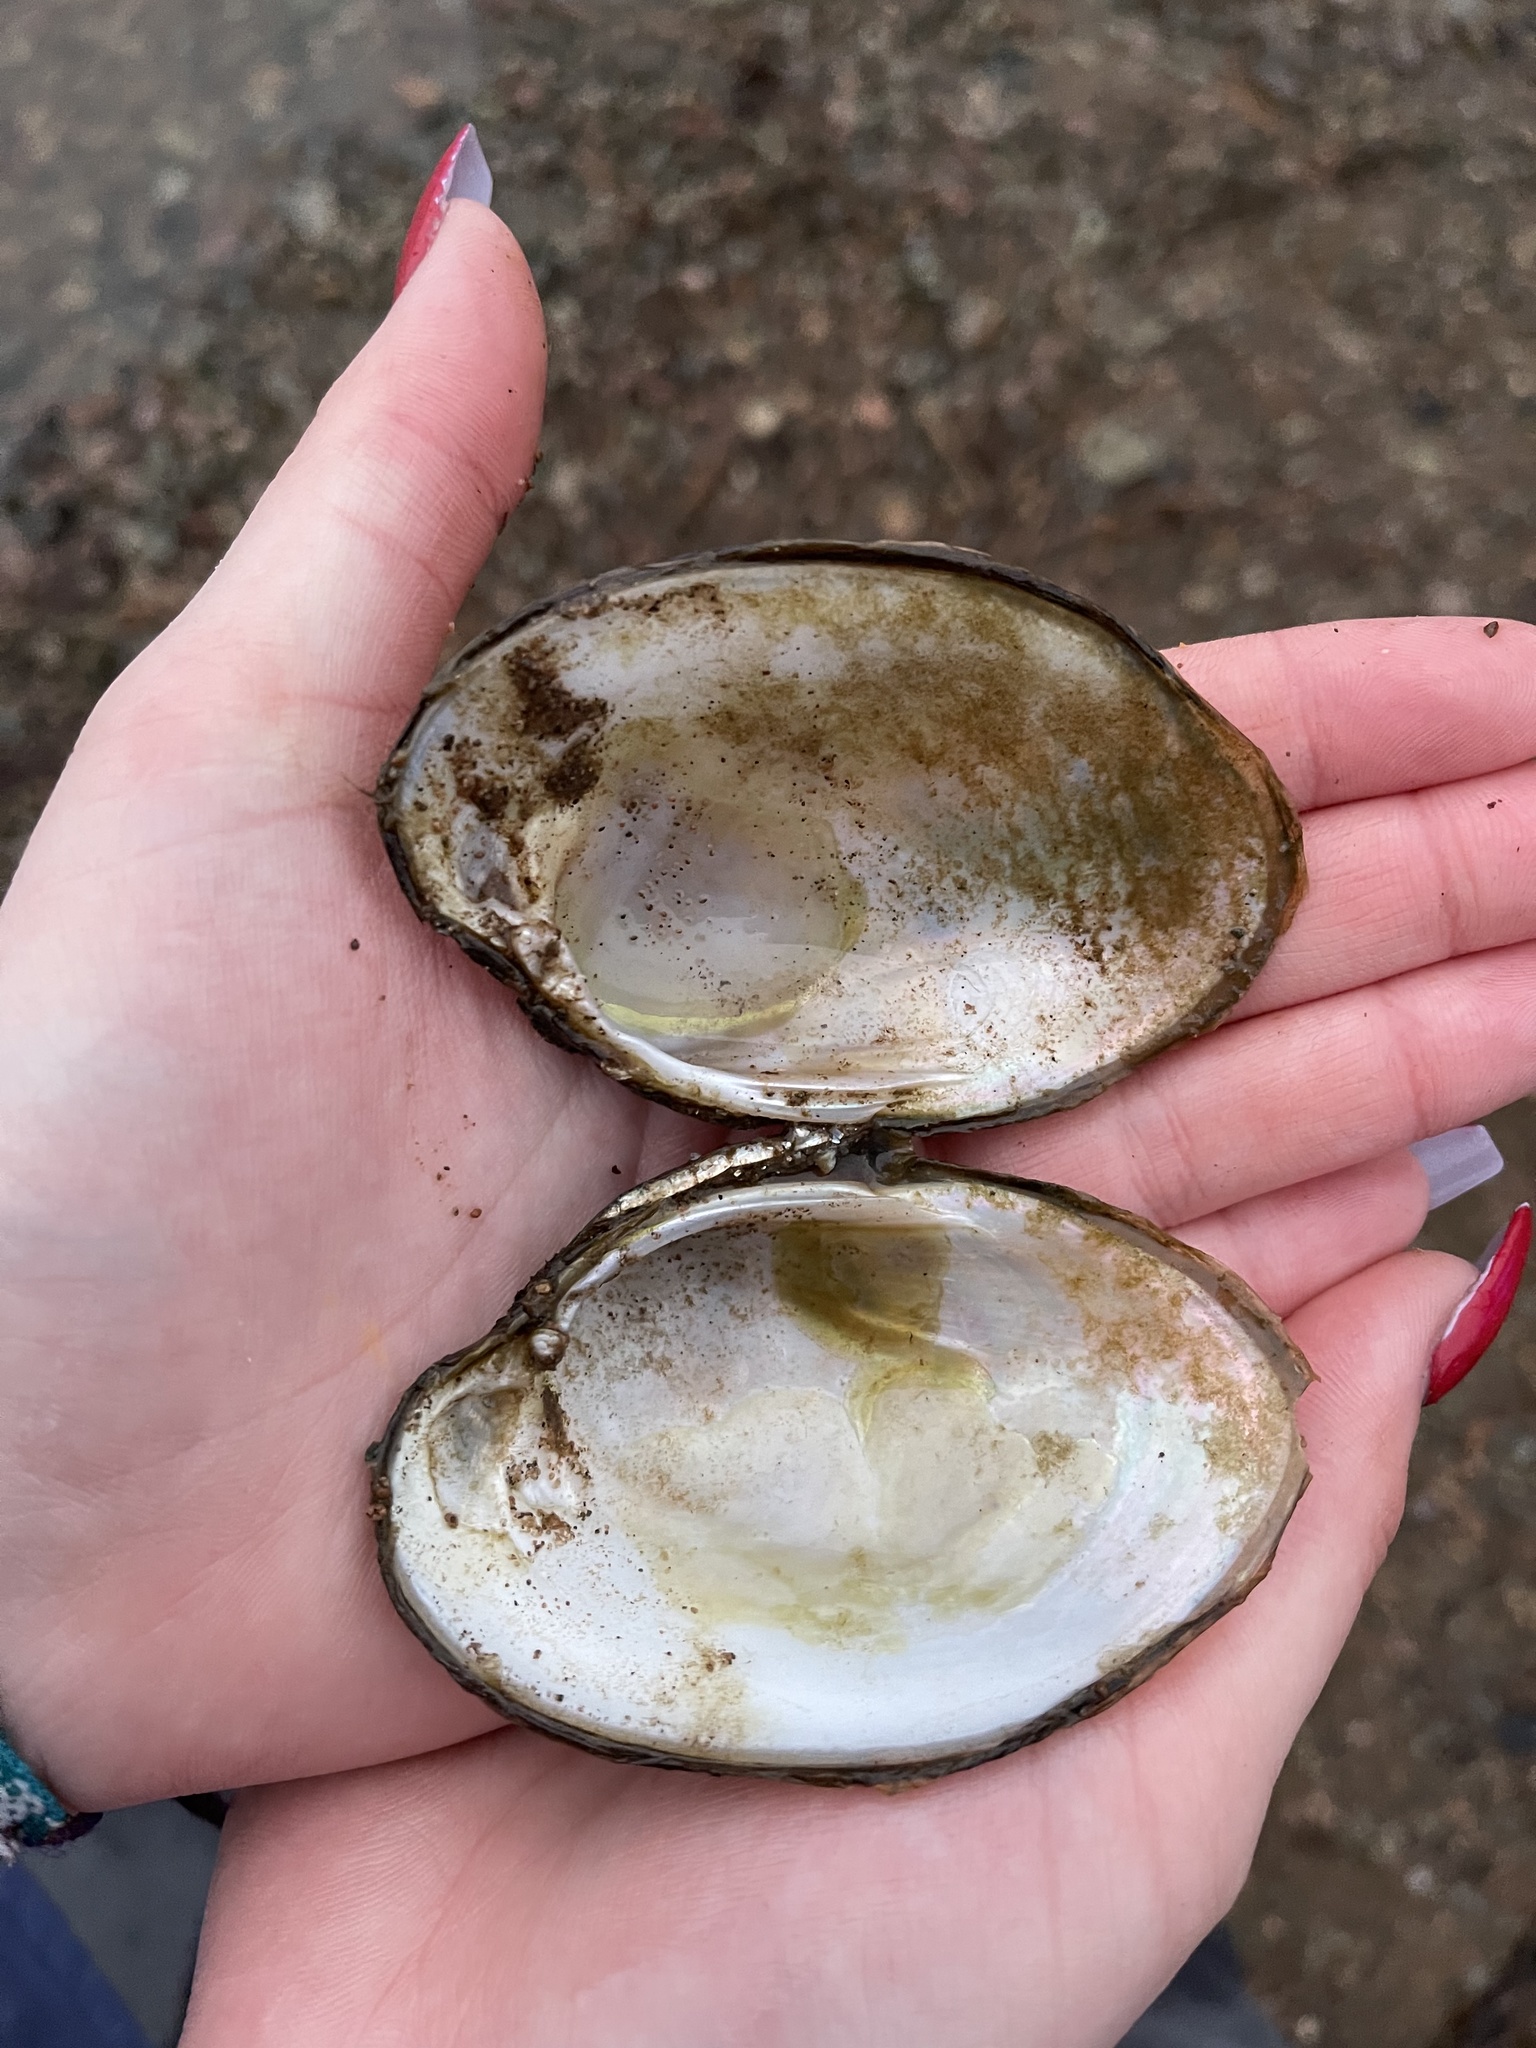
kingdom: Animalia
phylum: Mollusca
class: Bivalvia
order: Unionida
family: Unionidae
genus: Lampsilis
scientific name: Lampsilis cariosa
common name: Yellow lampmussel
